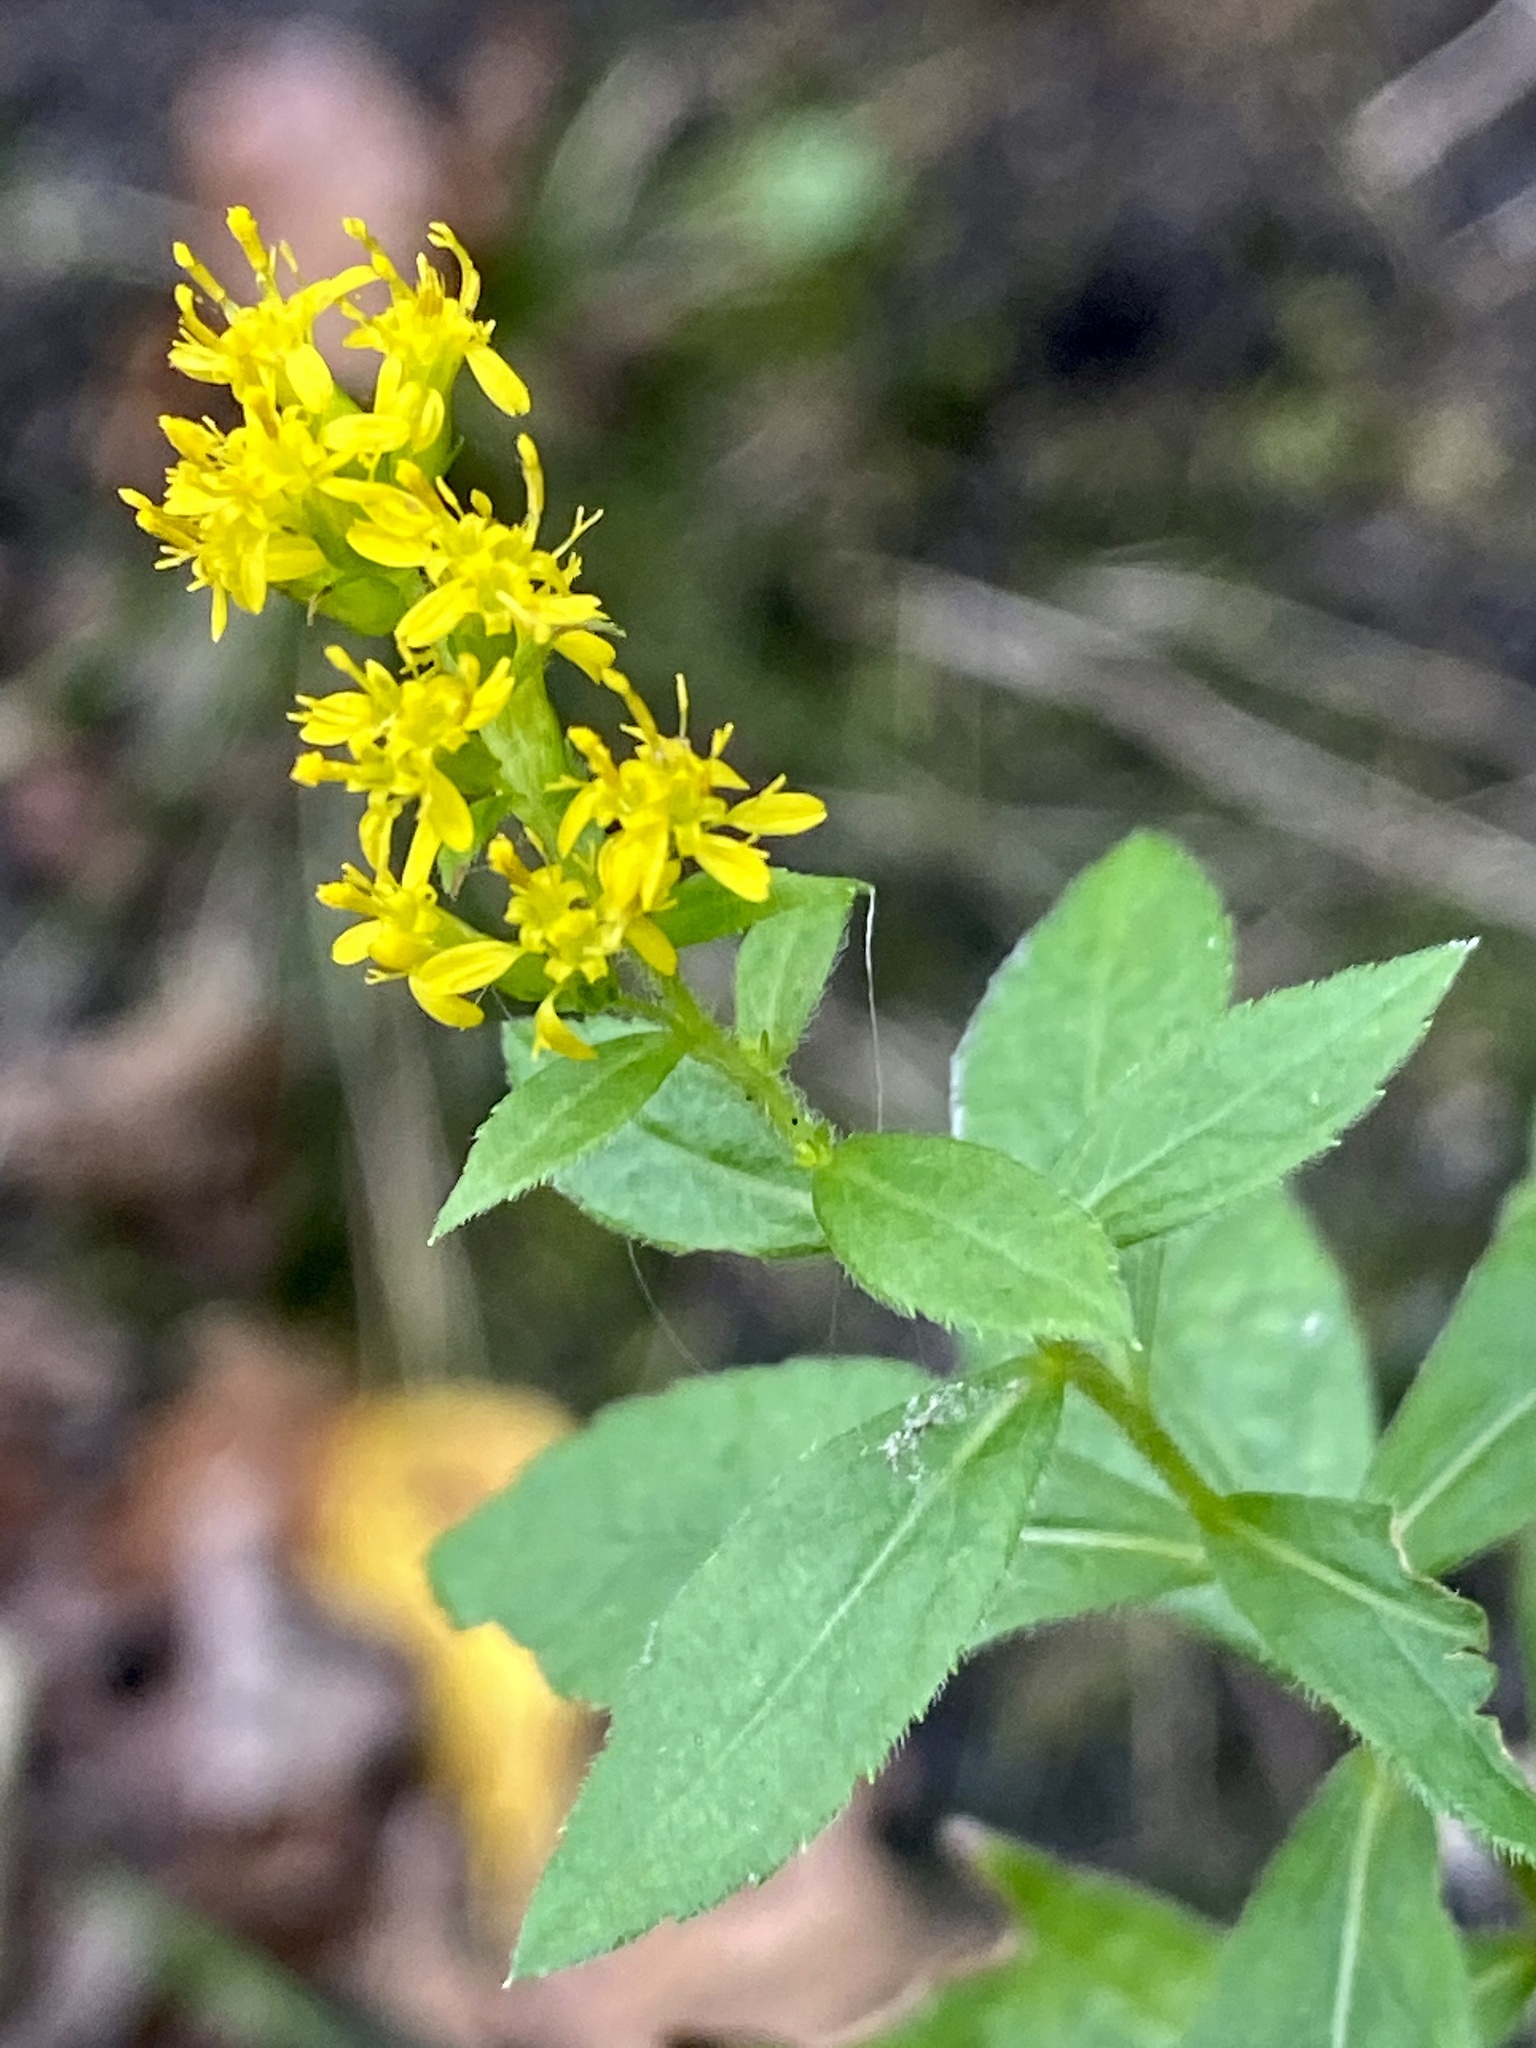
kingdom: Plantae
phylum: Tracheophyta
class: Magnoliopsida
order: Asterales
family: Asteraceae
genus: Solidago
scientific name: Solidago rugosa
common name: Rough-stemmed goldenrod
